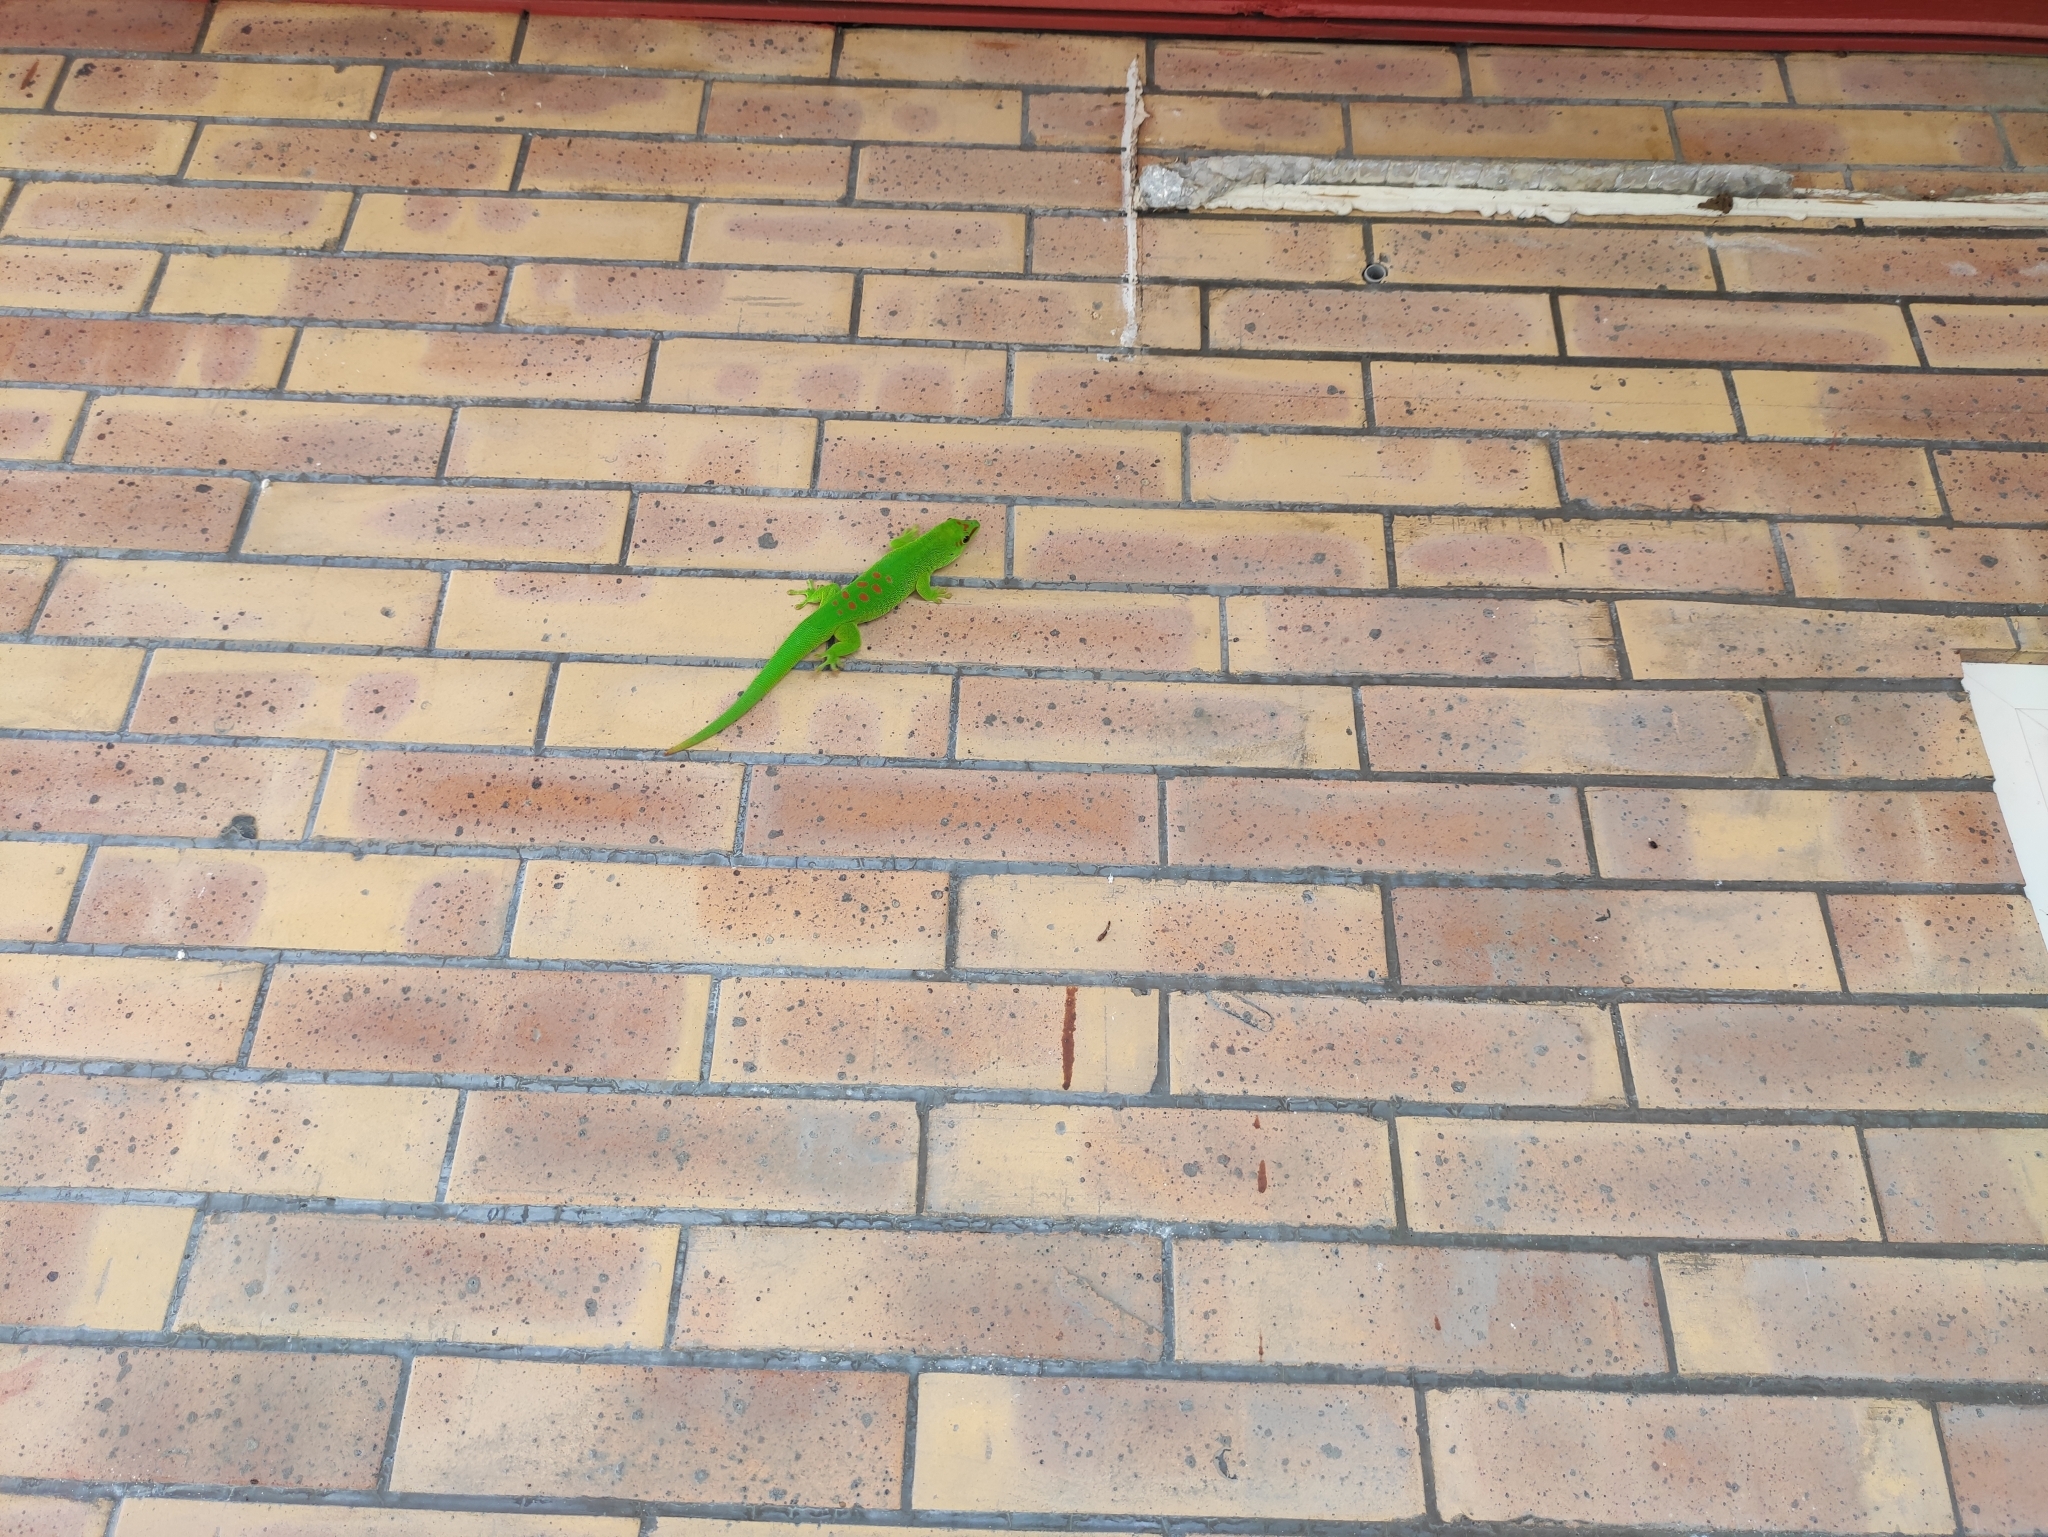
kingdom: Animalia
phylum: Chordata
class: Squamata
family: Gekkonidae
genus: Phelsuma
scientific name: Phelsuma grandis
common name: Madagascar giant day gecko
